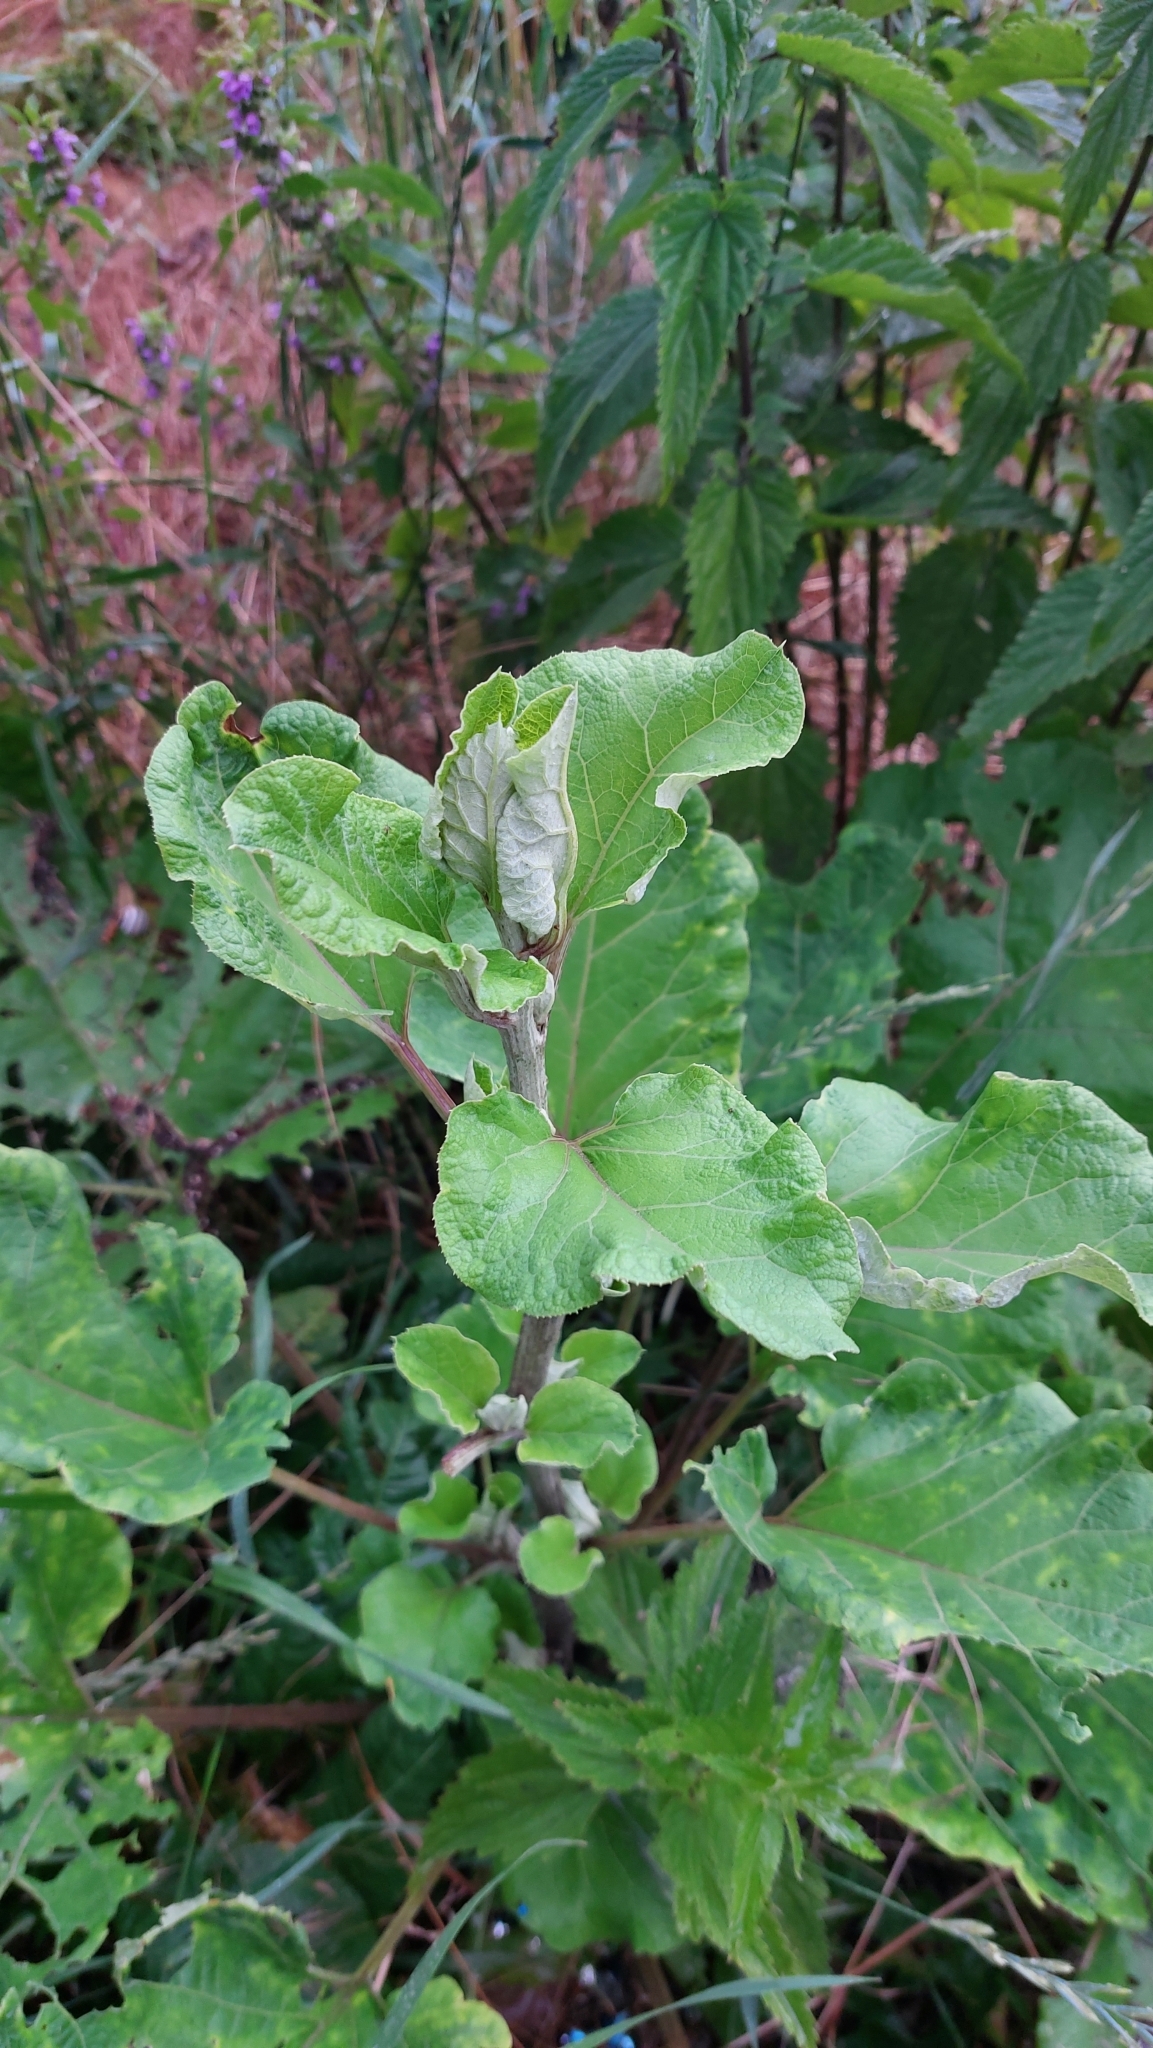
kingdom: Plantae
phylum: Tracheophyta
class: Magnoliopsida
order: Asterales
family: Asteraceae
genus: Arctium
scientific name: Arctium
